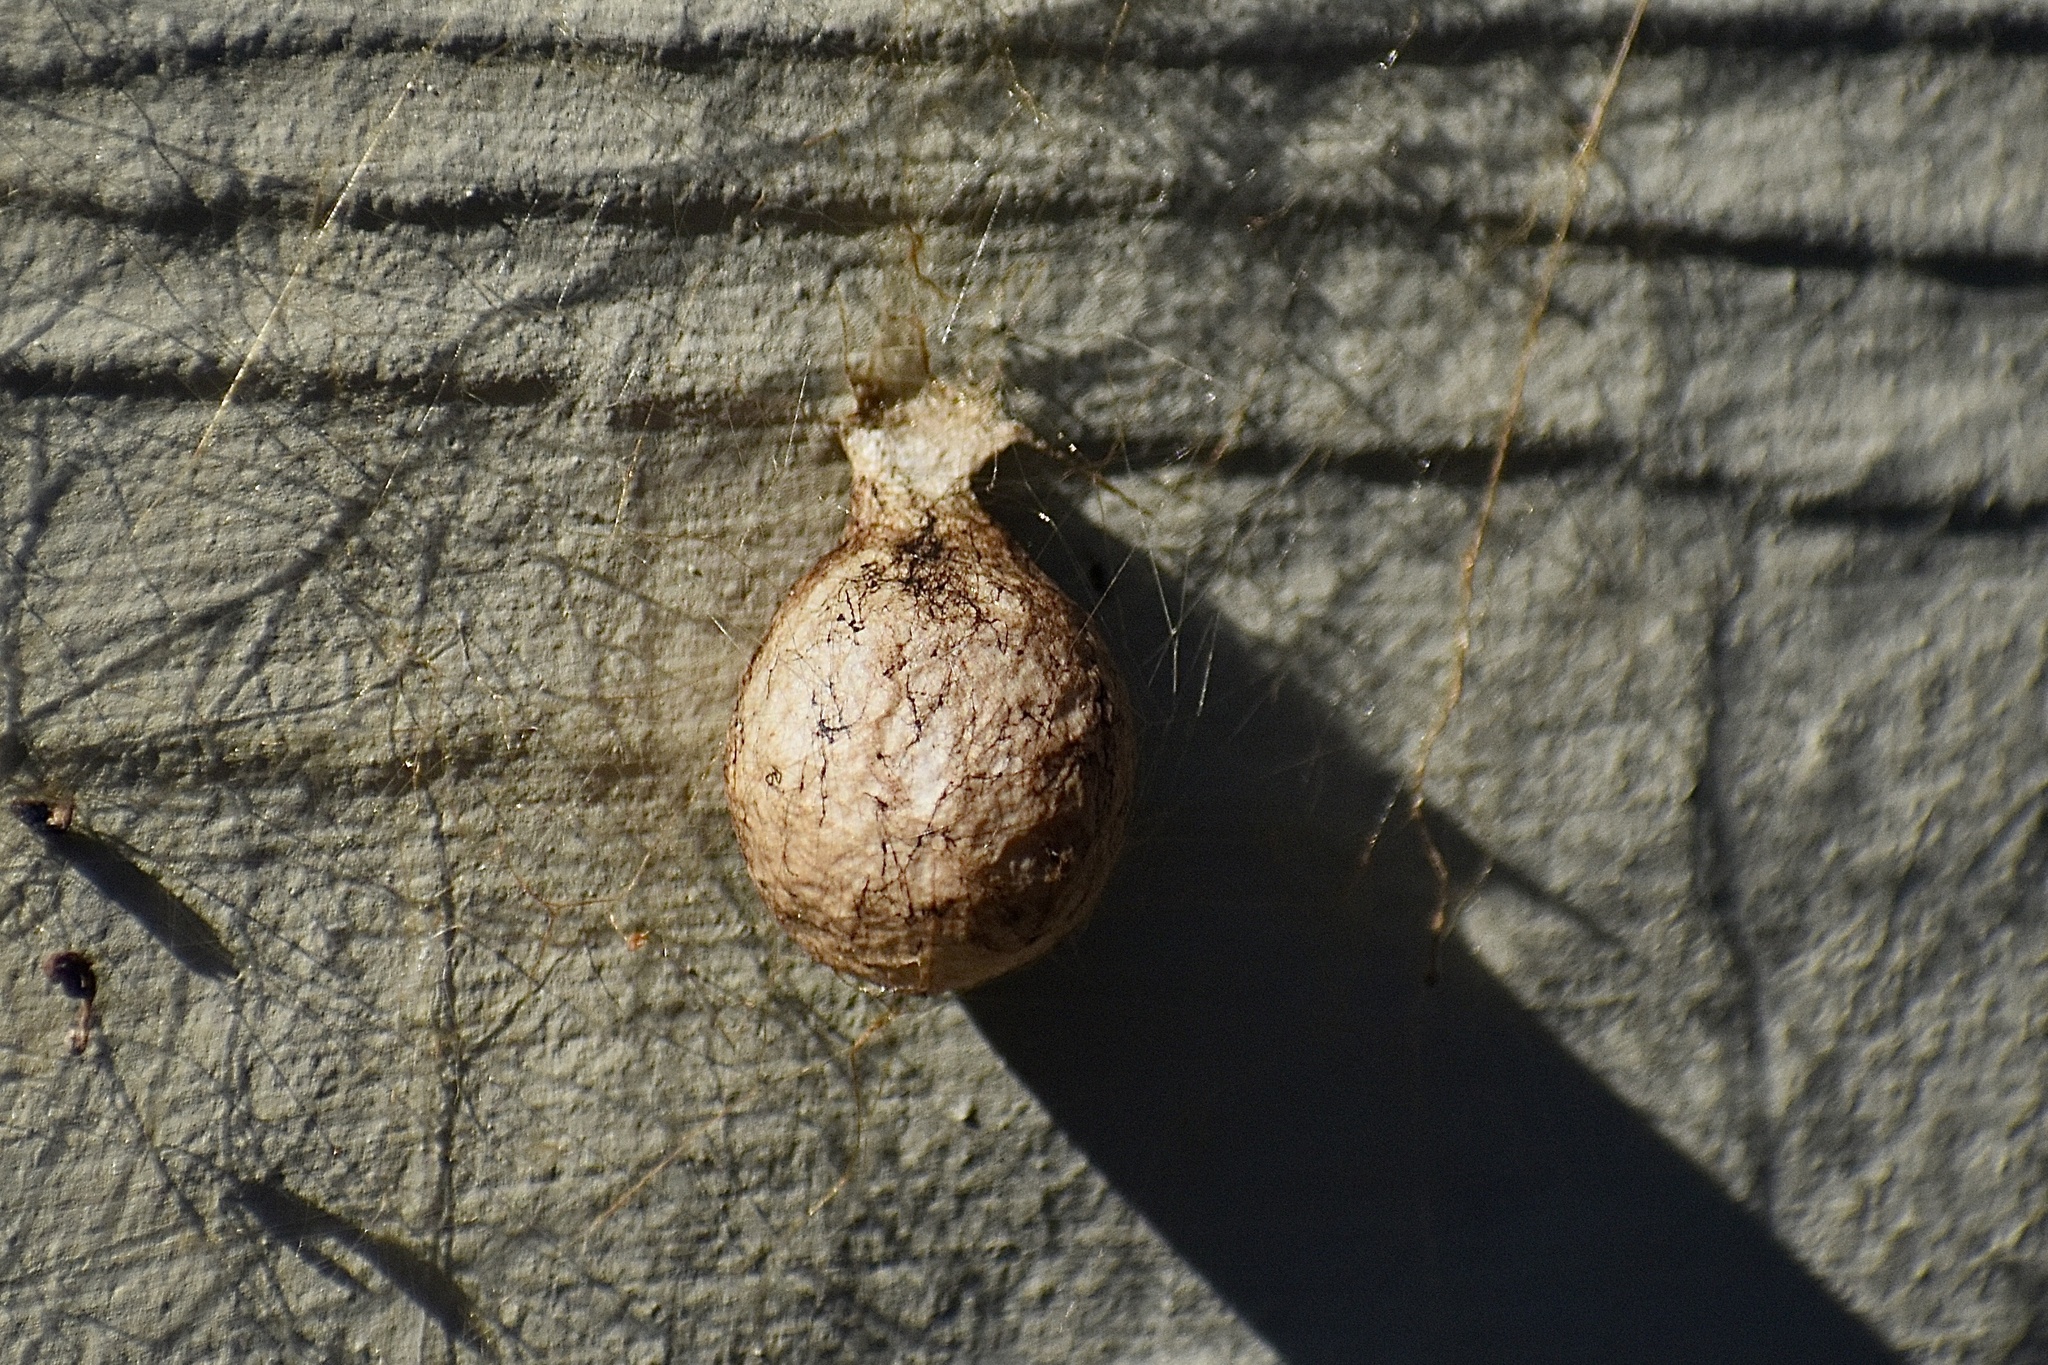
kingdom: Animalia
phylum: Arthropoda
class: Arachnida
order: Araneae
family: Araneidae
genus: Argiope
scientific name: Argiope aurantia
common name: Orb weavers
